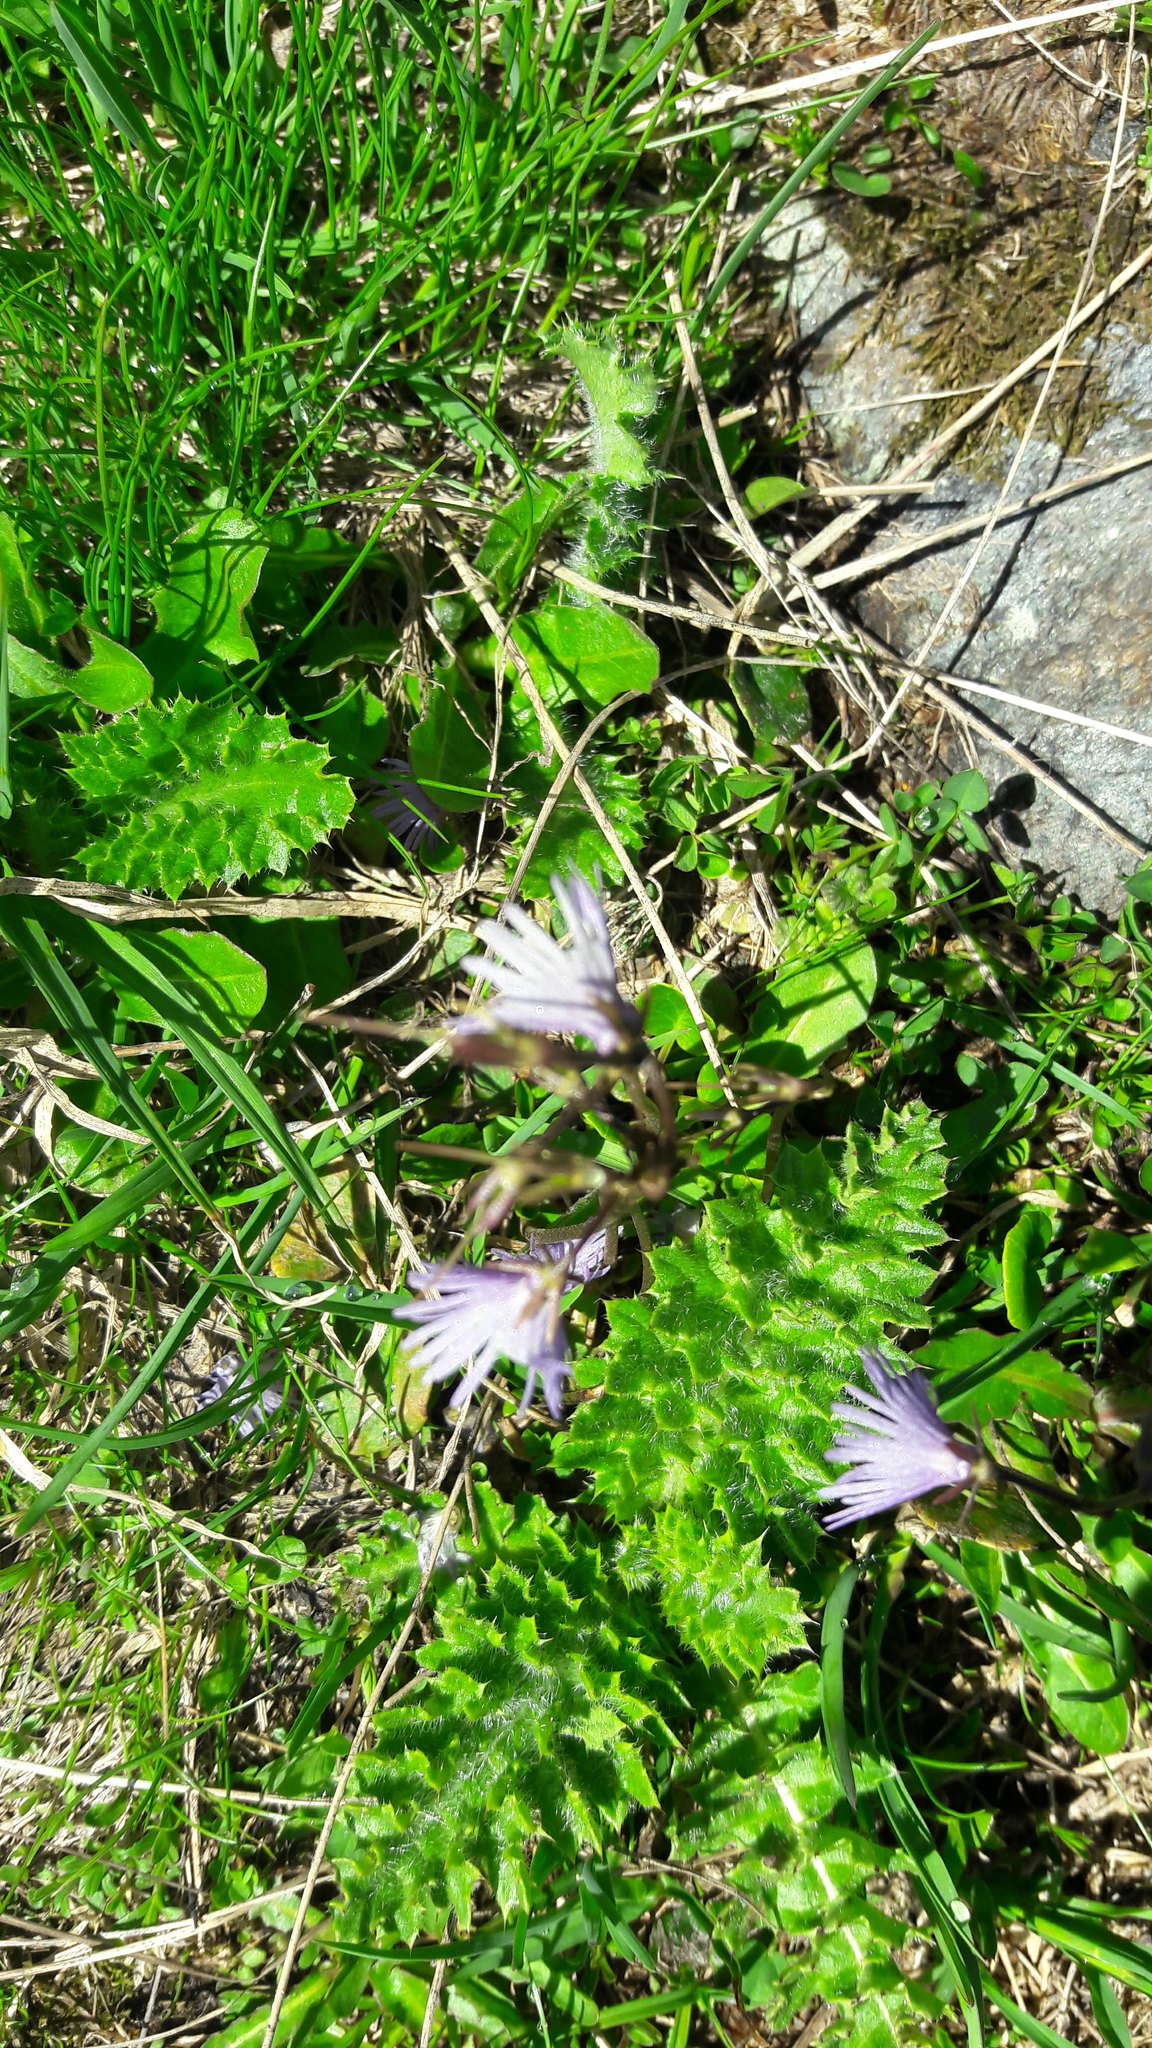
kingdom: Plantae
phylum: Tracheophyta
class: Magnoliopsida
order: Ericales
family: Primulaceae
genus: Soldanella
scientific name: Soldanella alpina
